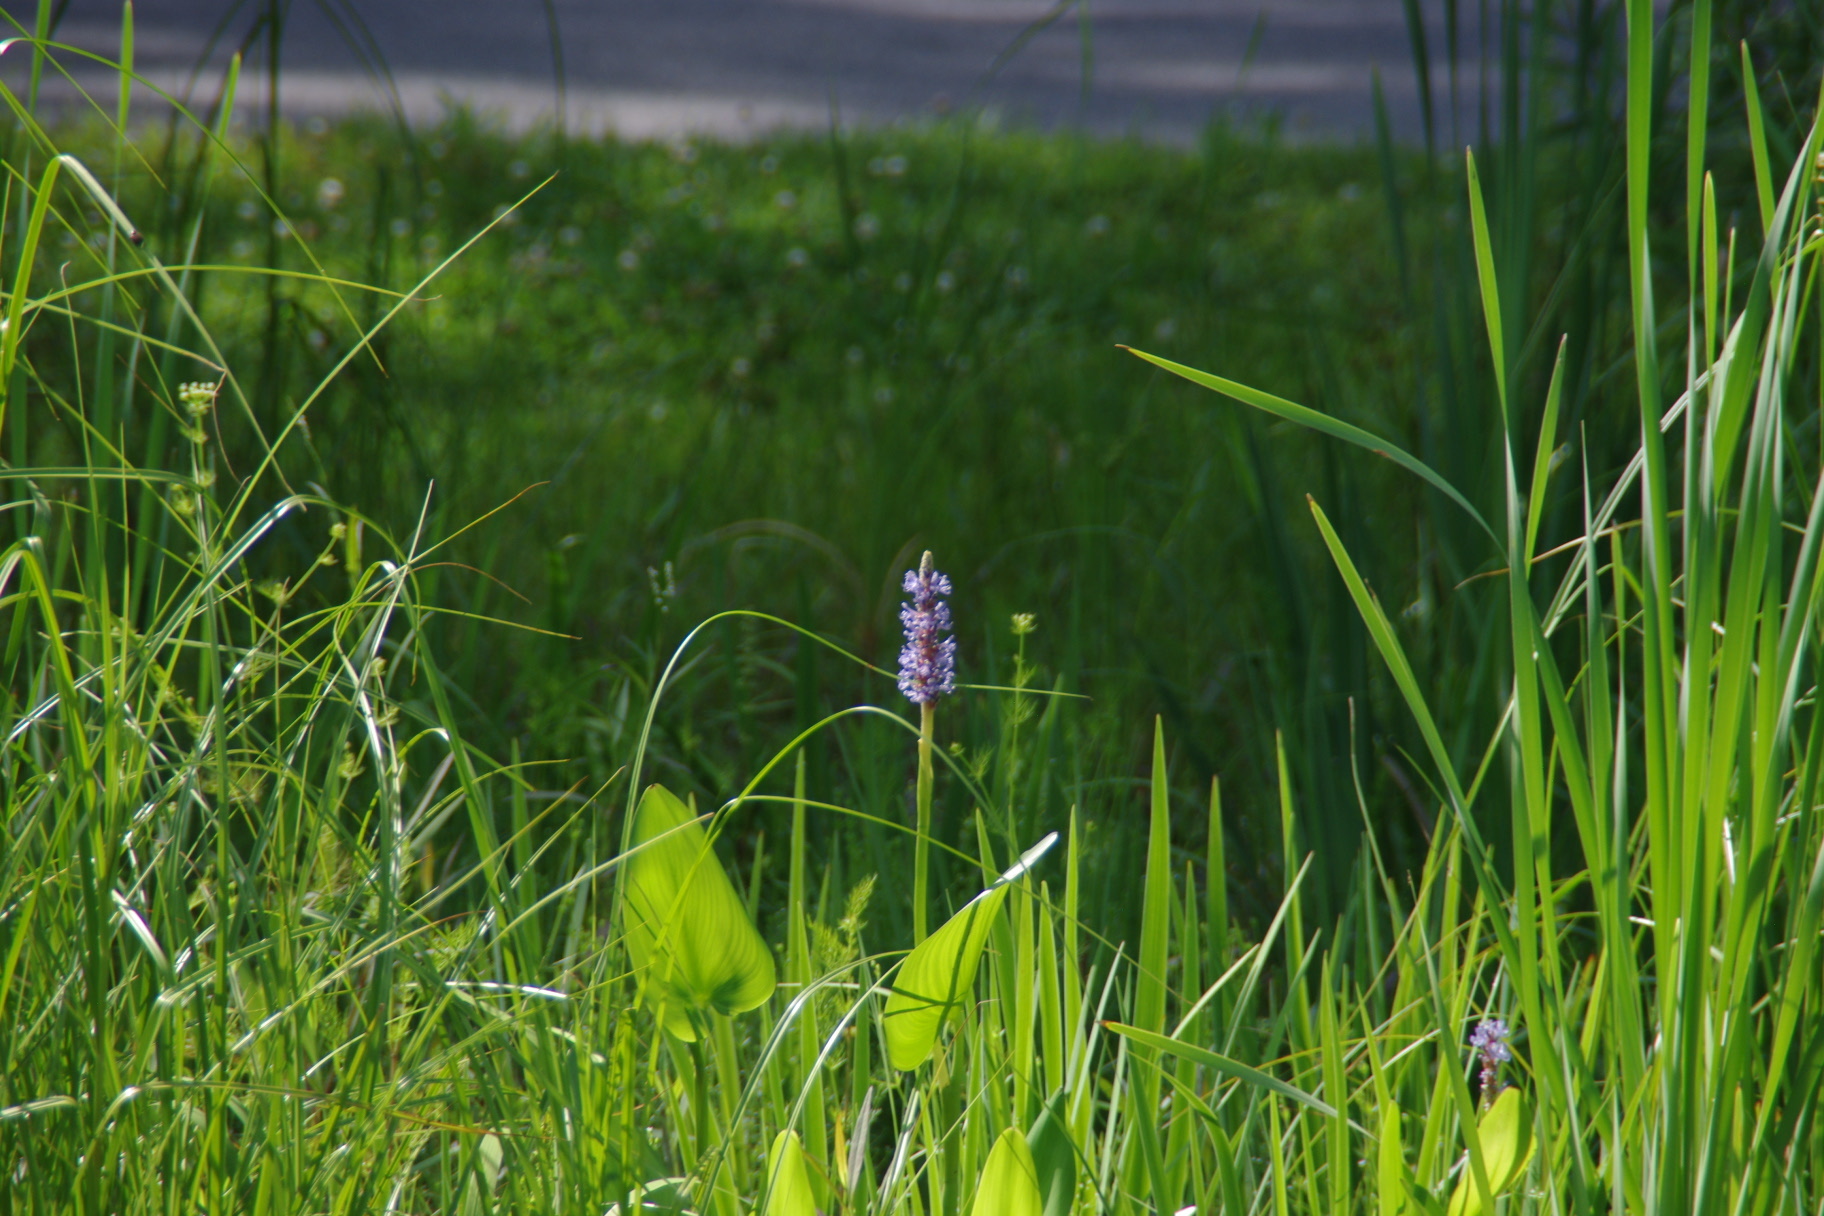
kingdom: Plantae
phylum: Tracheophyta
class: Liliopsida
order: Commelinales
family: Pontederiaceae
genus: Pontederia
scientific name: Pontederia cordata
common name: Pickerelweed
